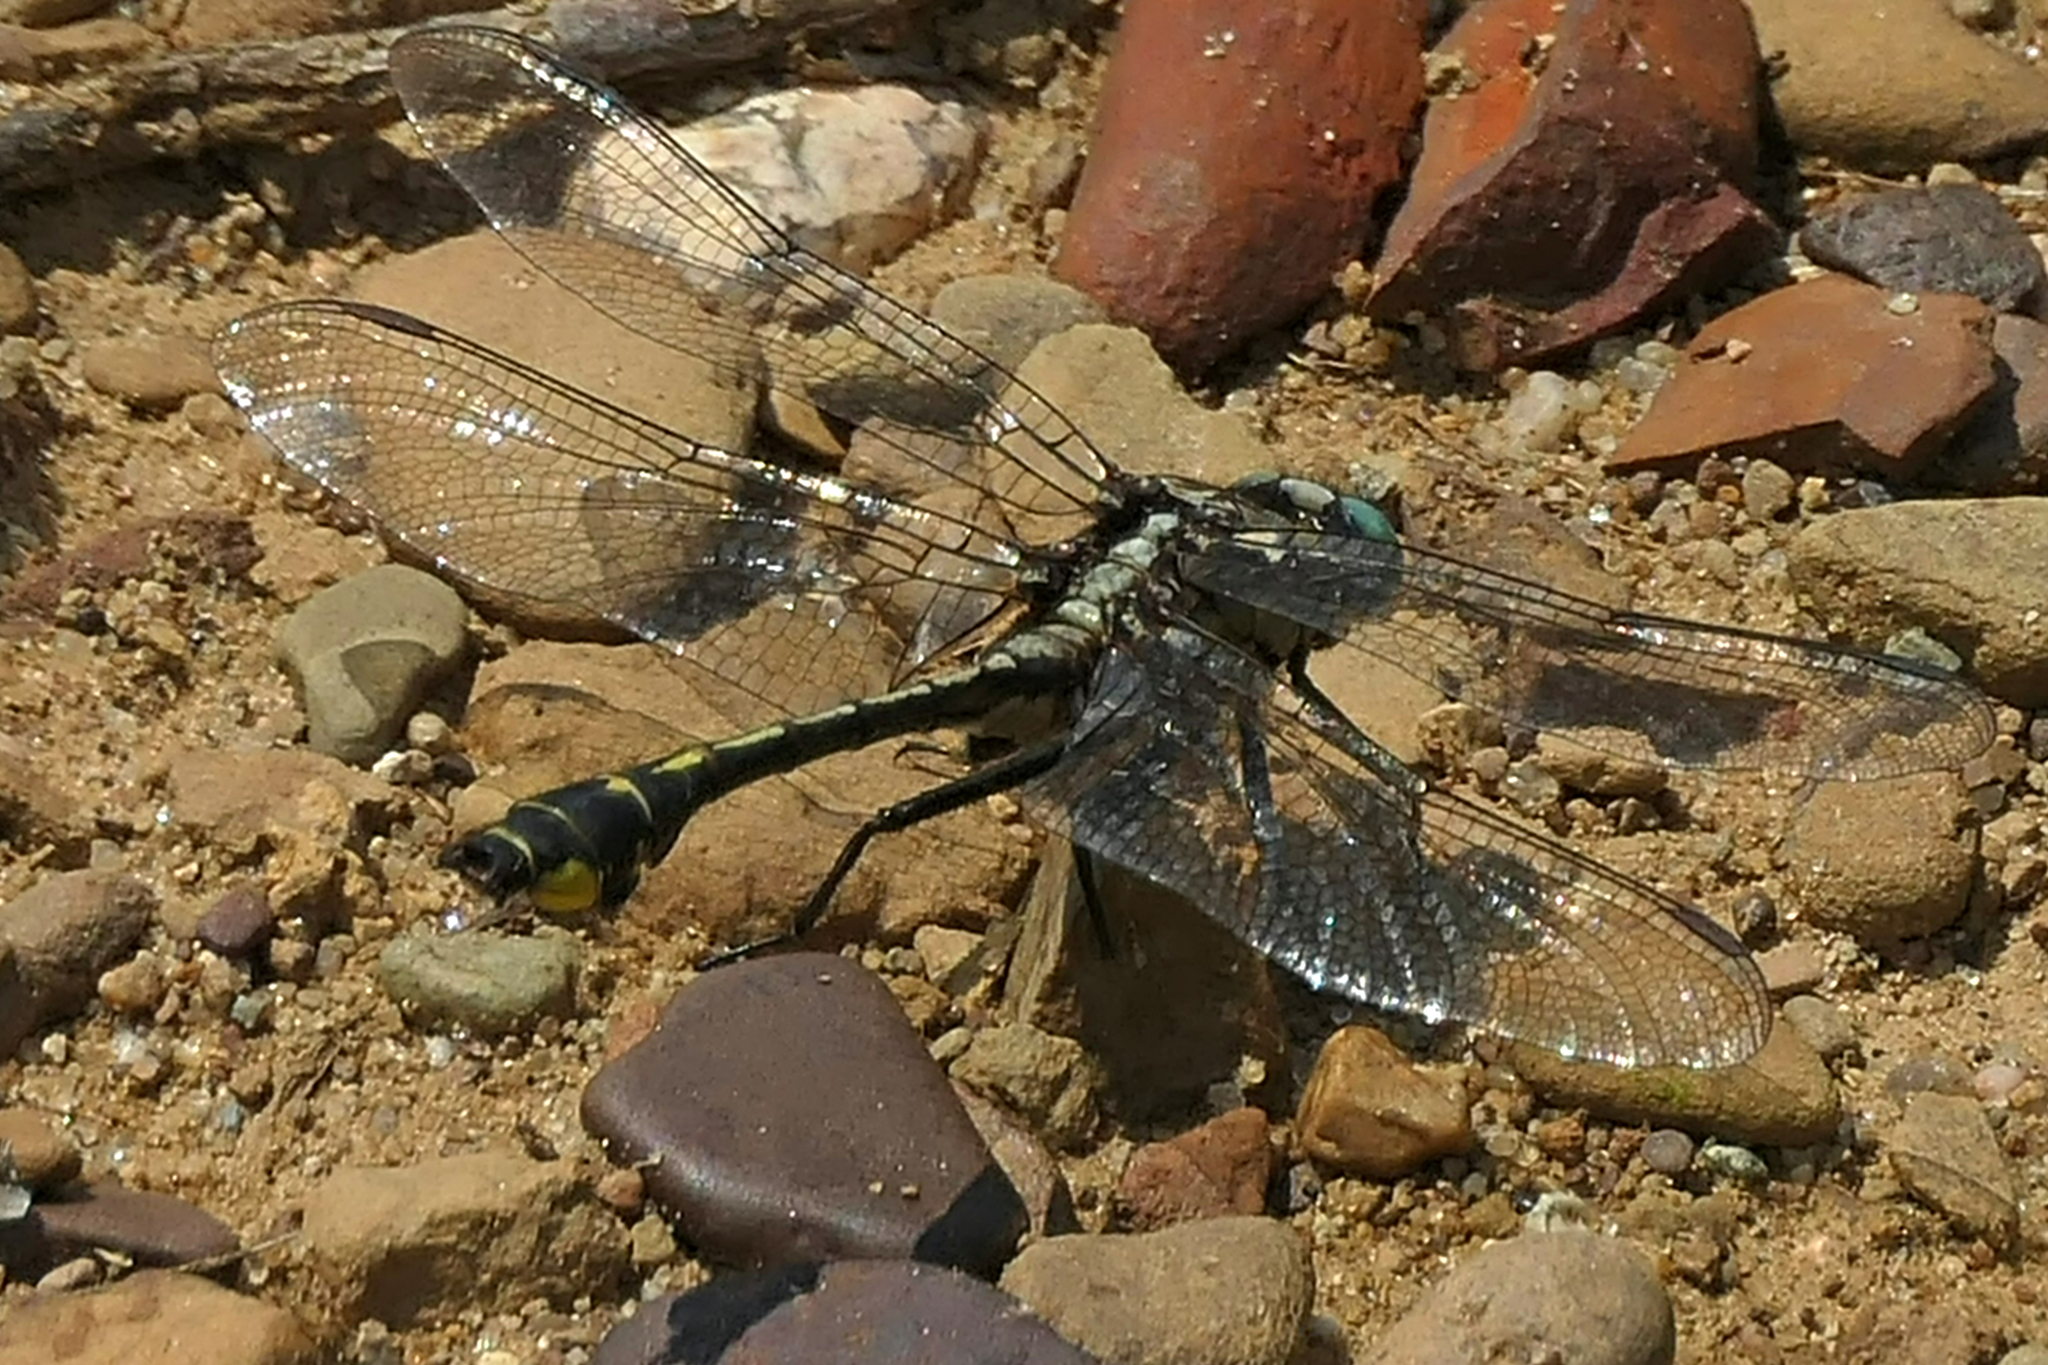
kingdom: Animalia
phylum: Arthropoda
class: Insecta
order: Odonata
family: Gomphidae
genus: Gomphurus
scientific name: Gomphurus fraternus
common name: Midland clubtail
